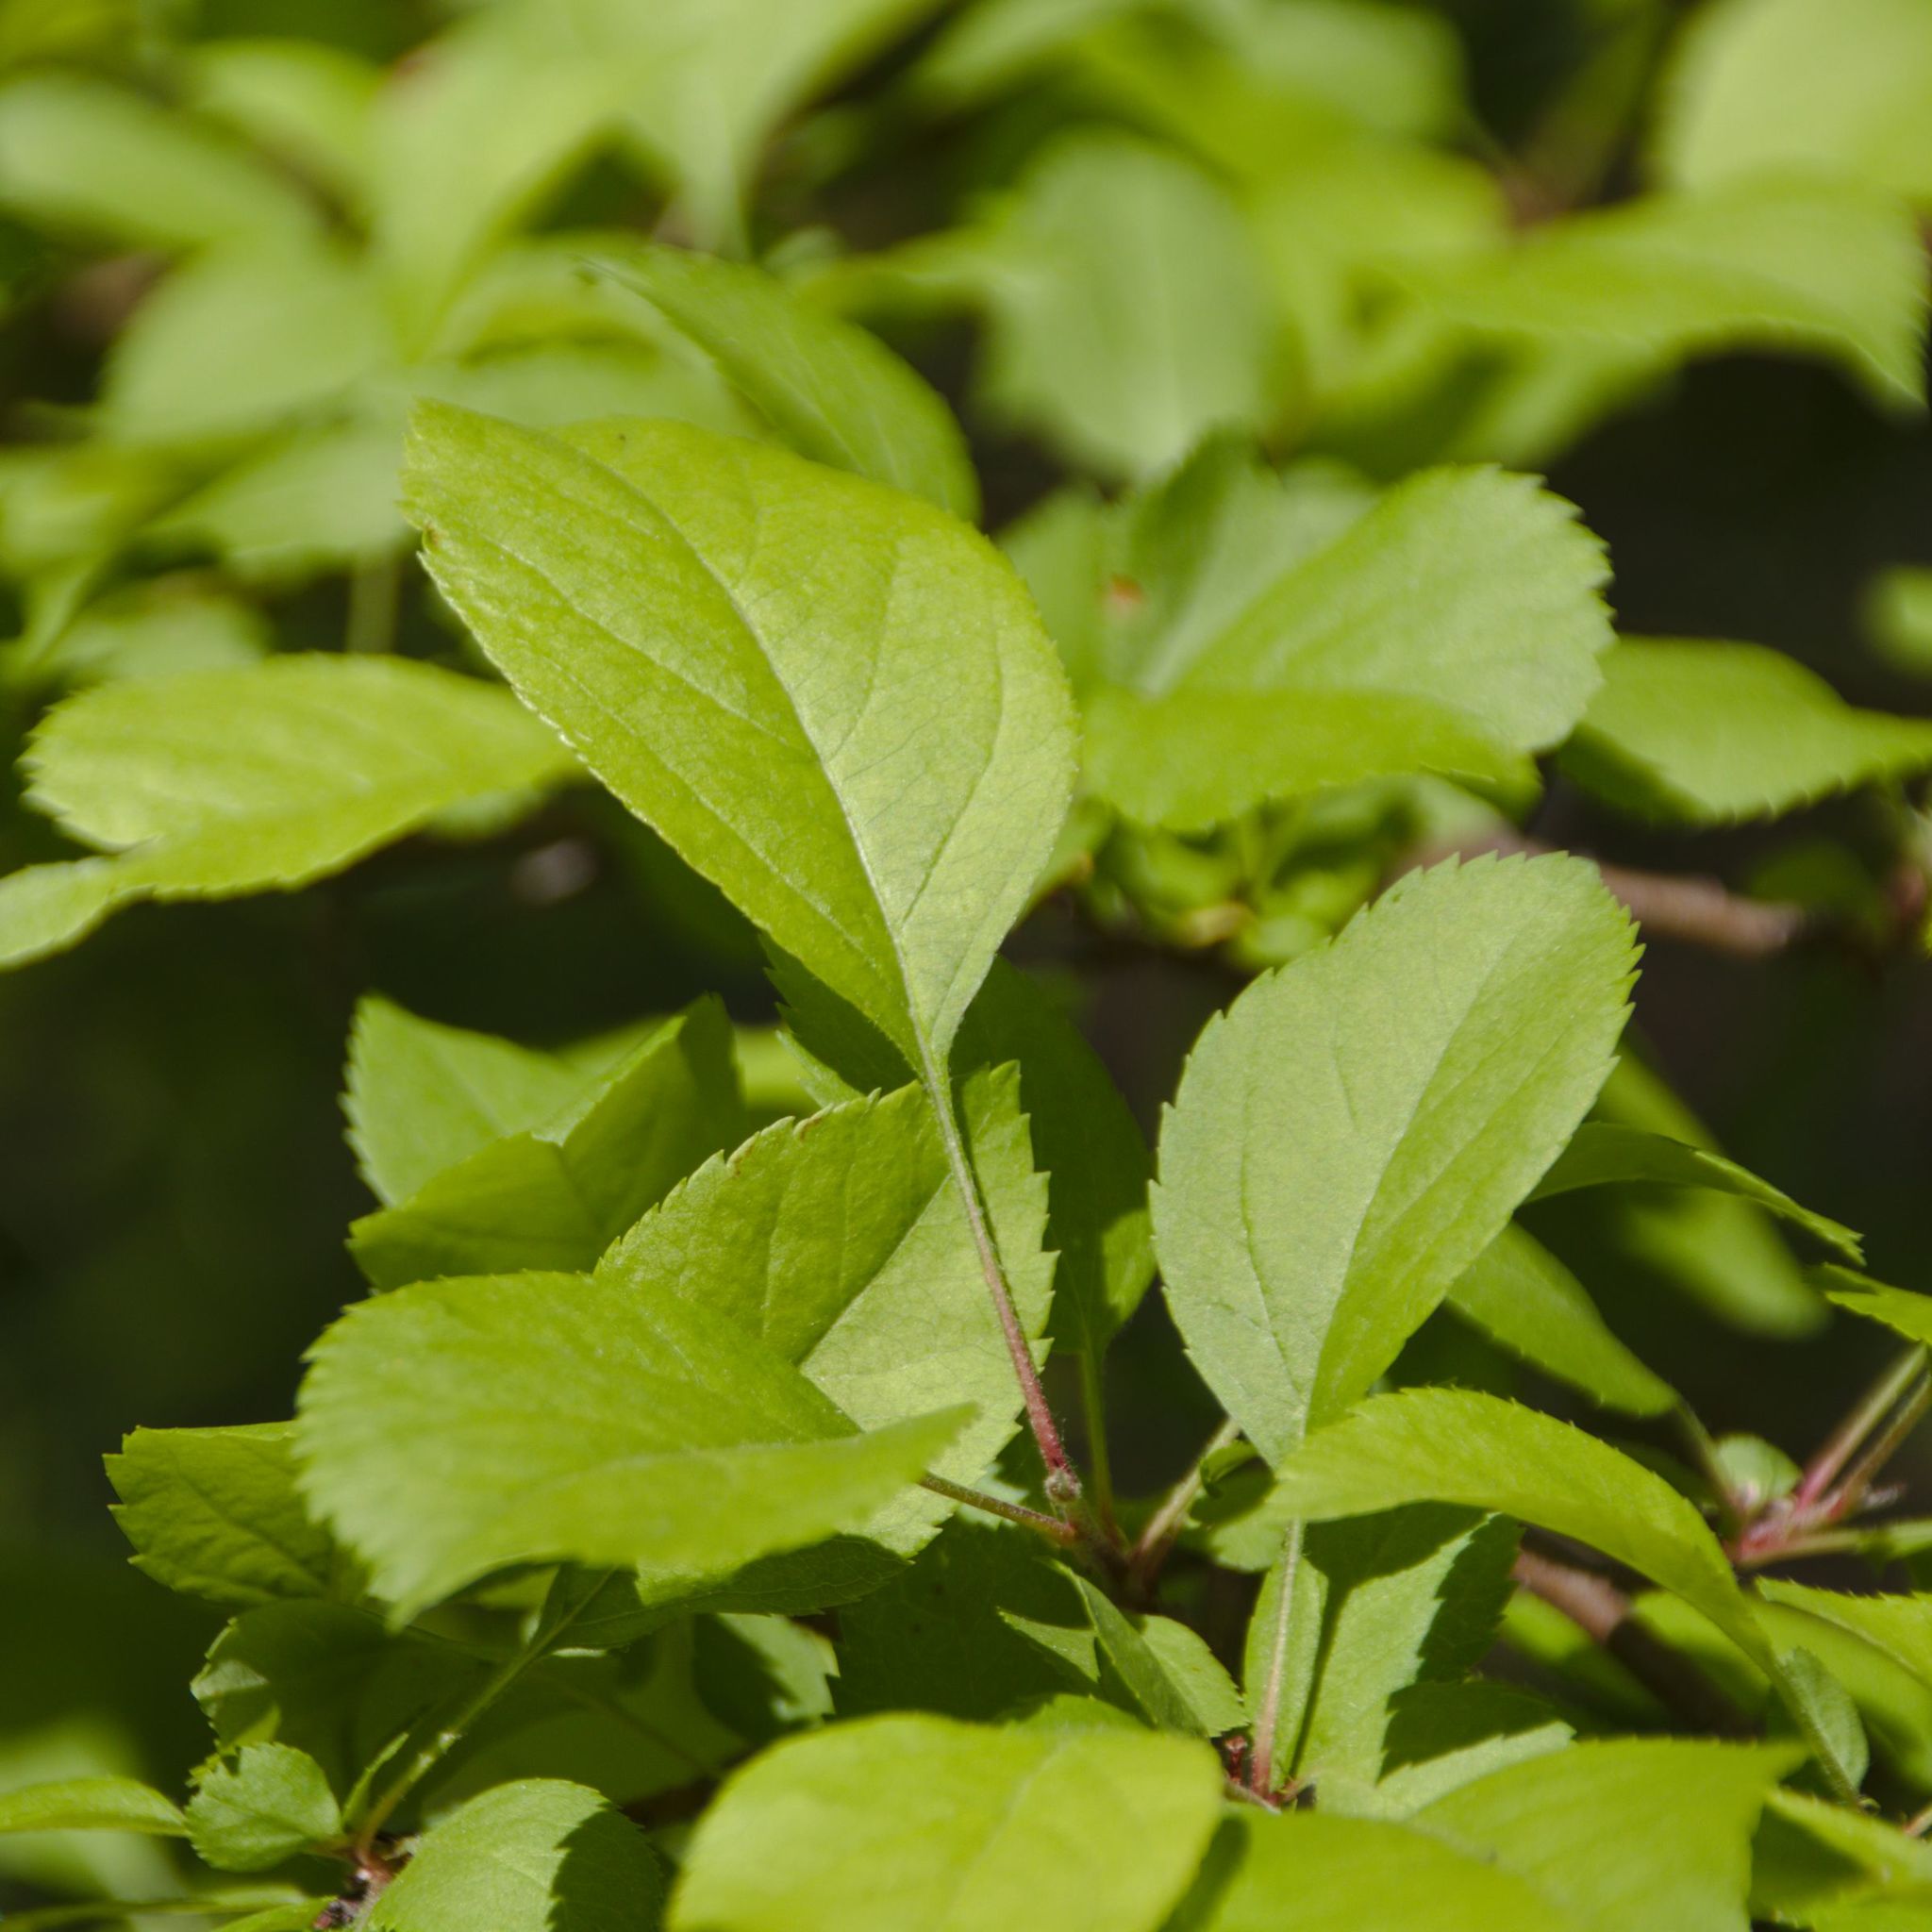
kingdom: Plantae
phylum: Tracheophyta
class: Magnoliopsida
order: Rosales
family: Rosaceae
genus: Malus
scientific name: Malus
